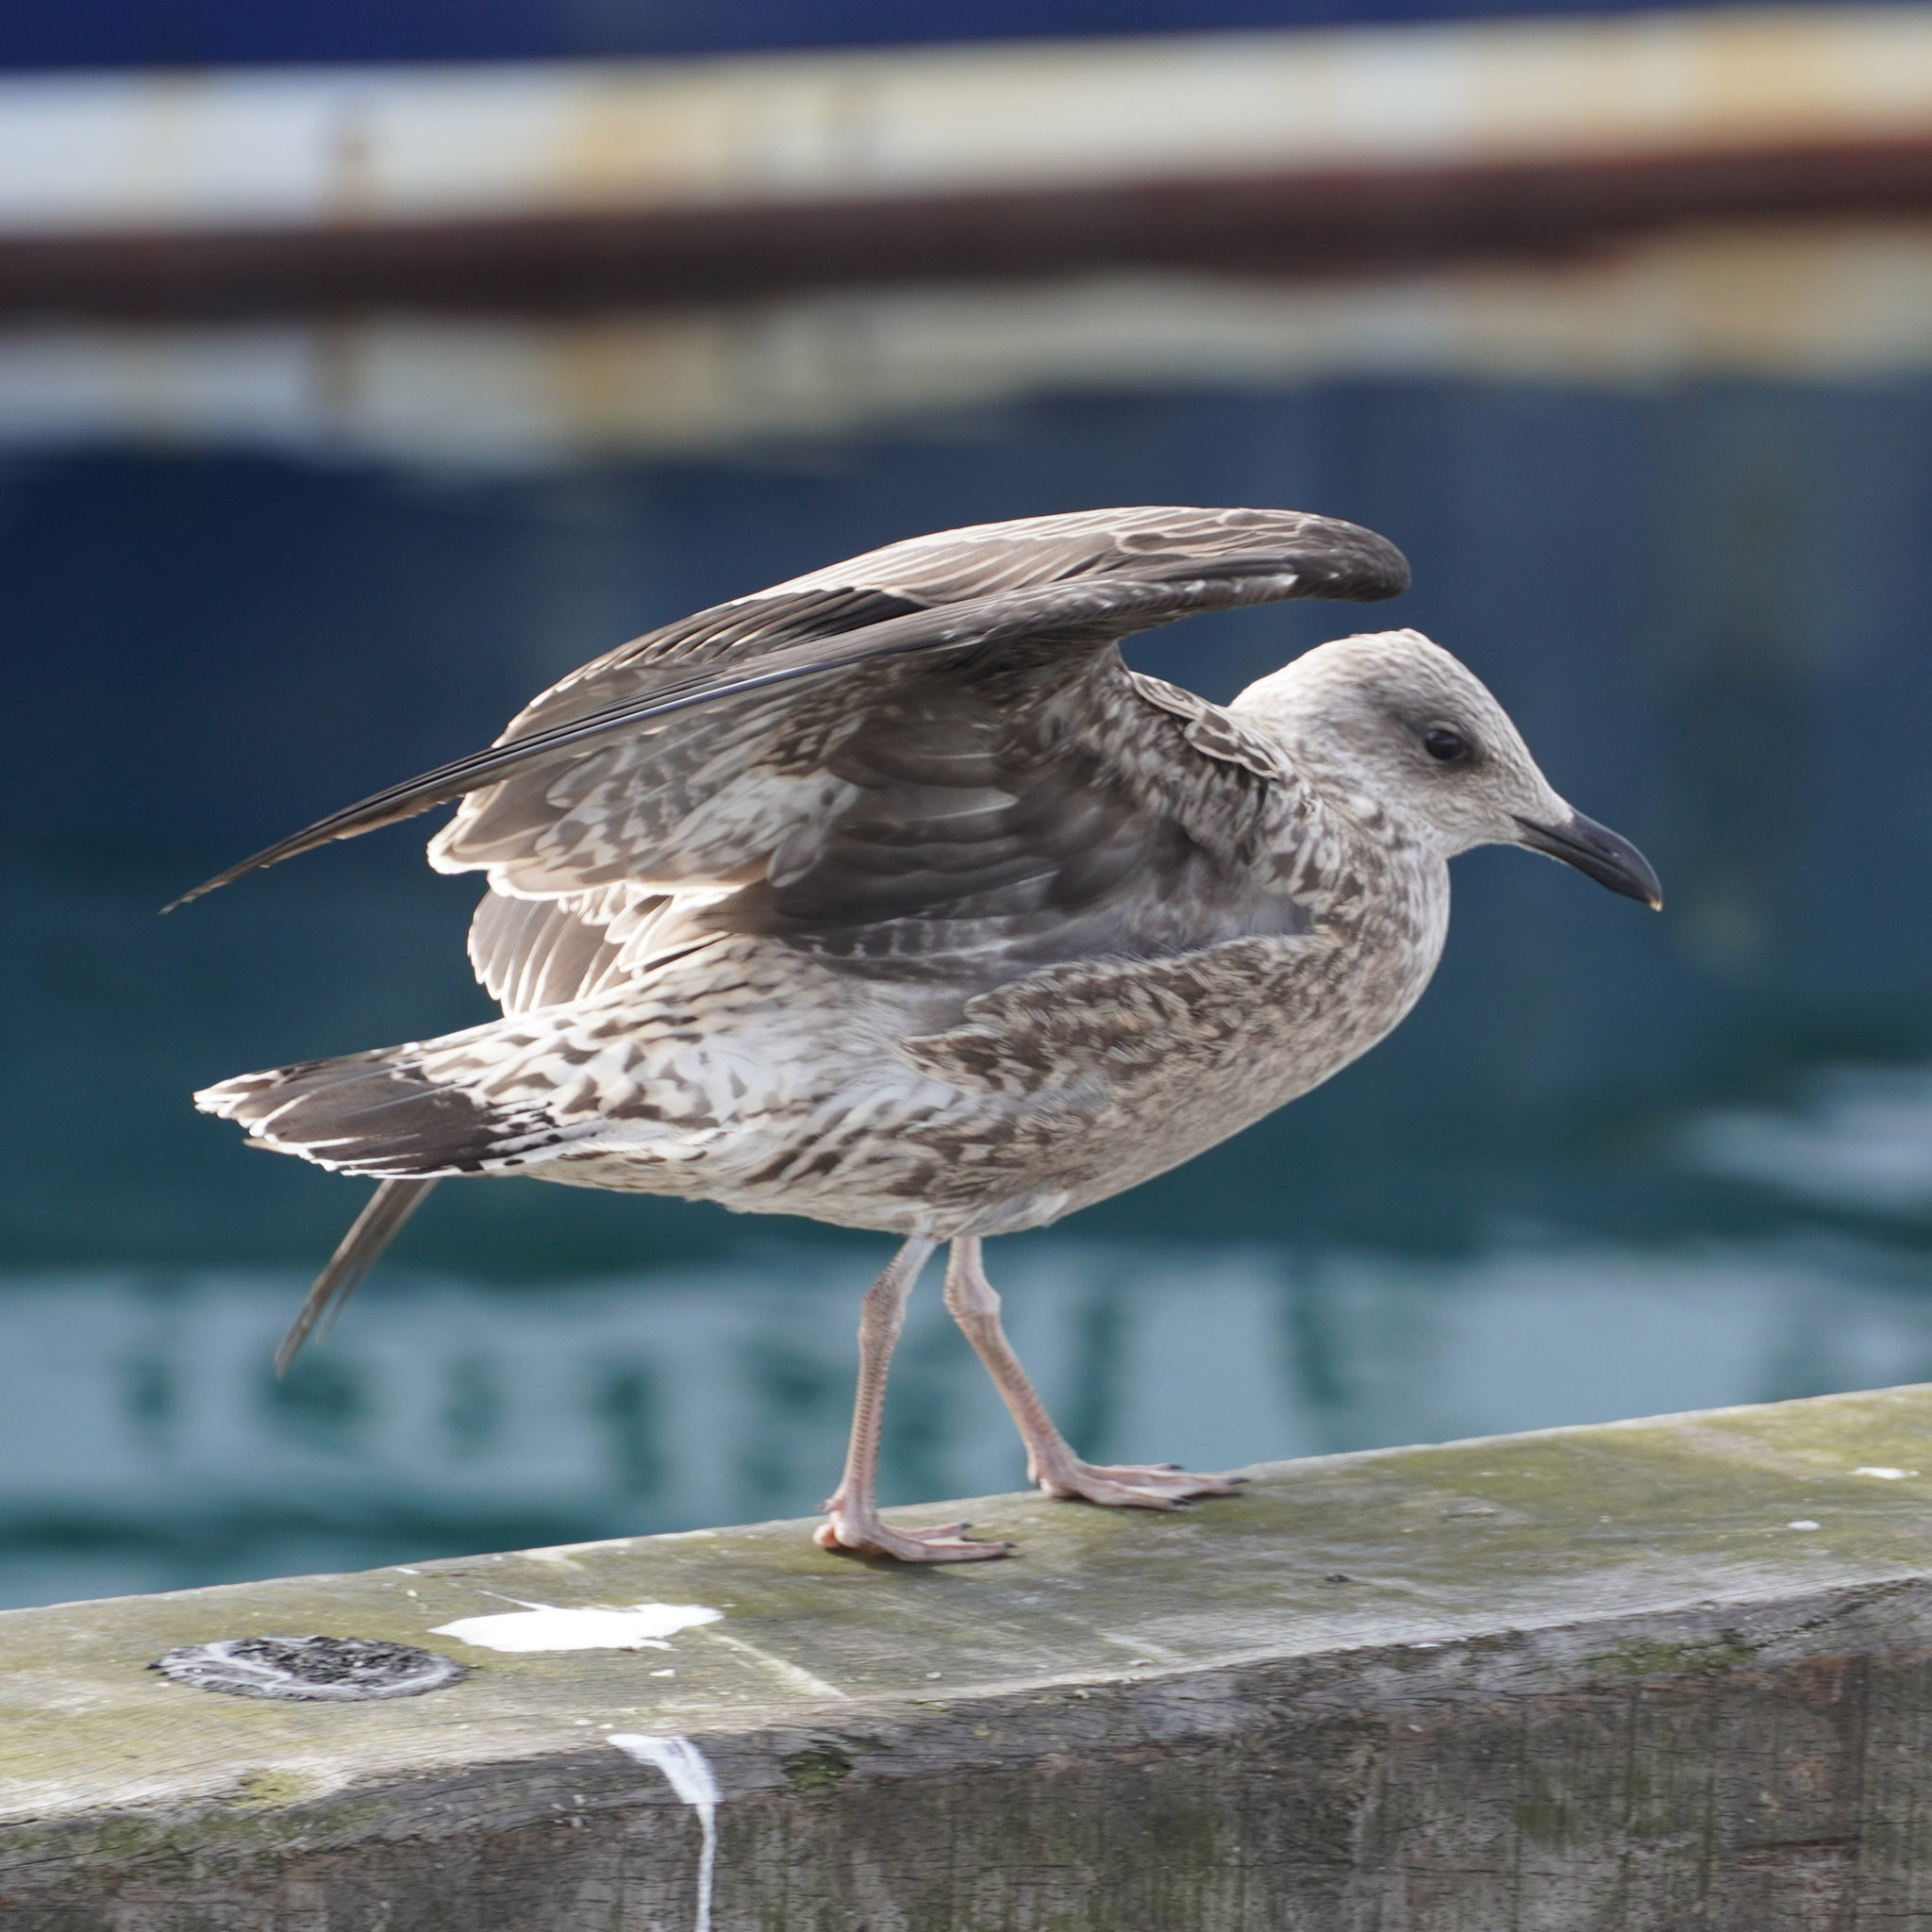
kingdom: Animalia
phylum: Chordata
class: Aves
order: Charadriiformes
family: Laridae
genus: Larus
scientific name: Larus fuscus
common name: Lesser black-backed gull
